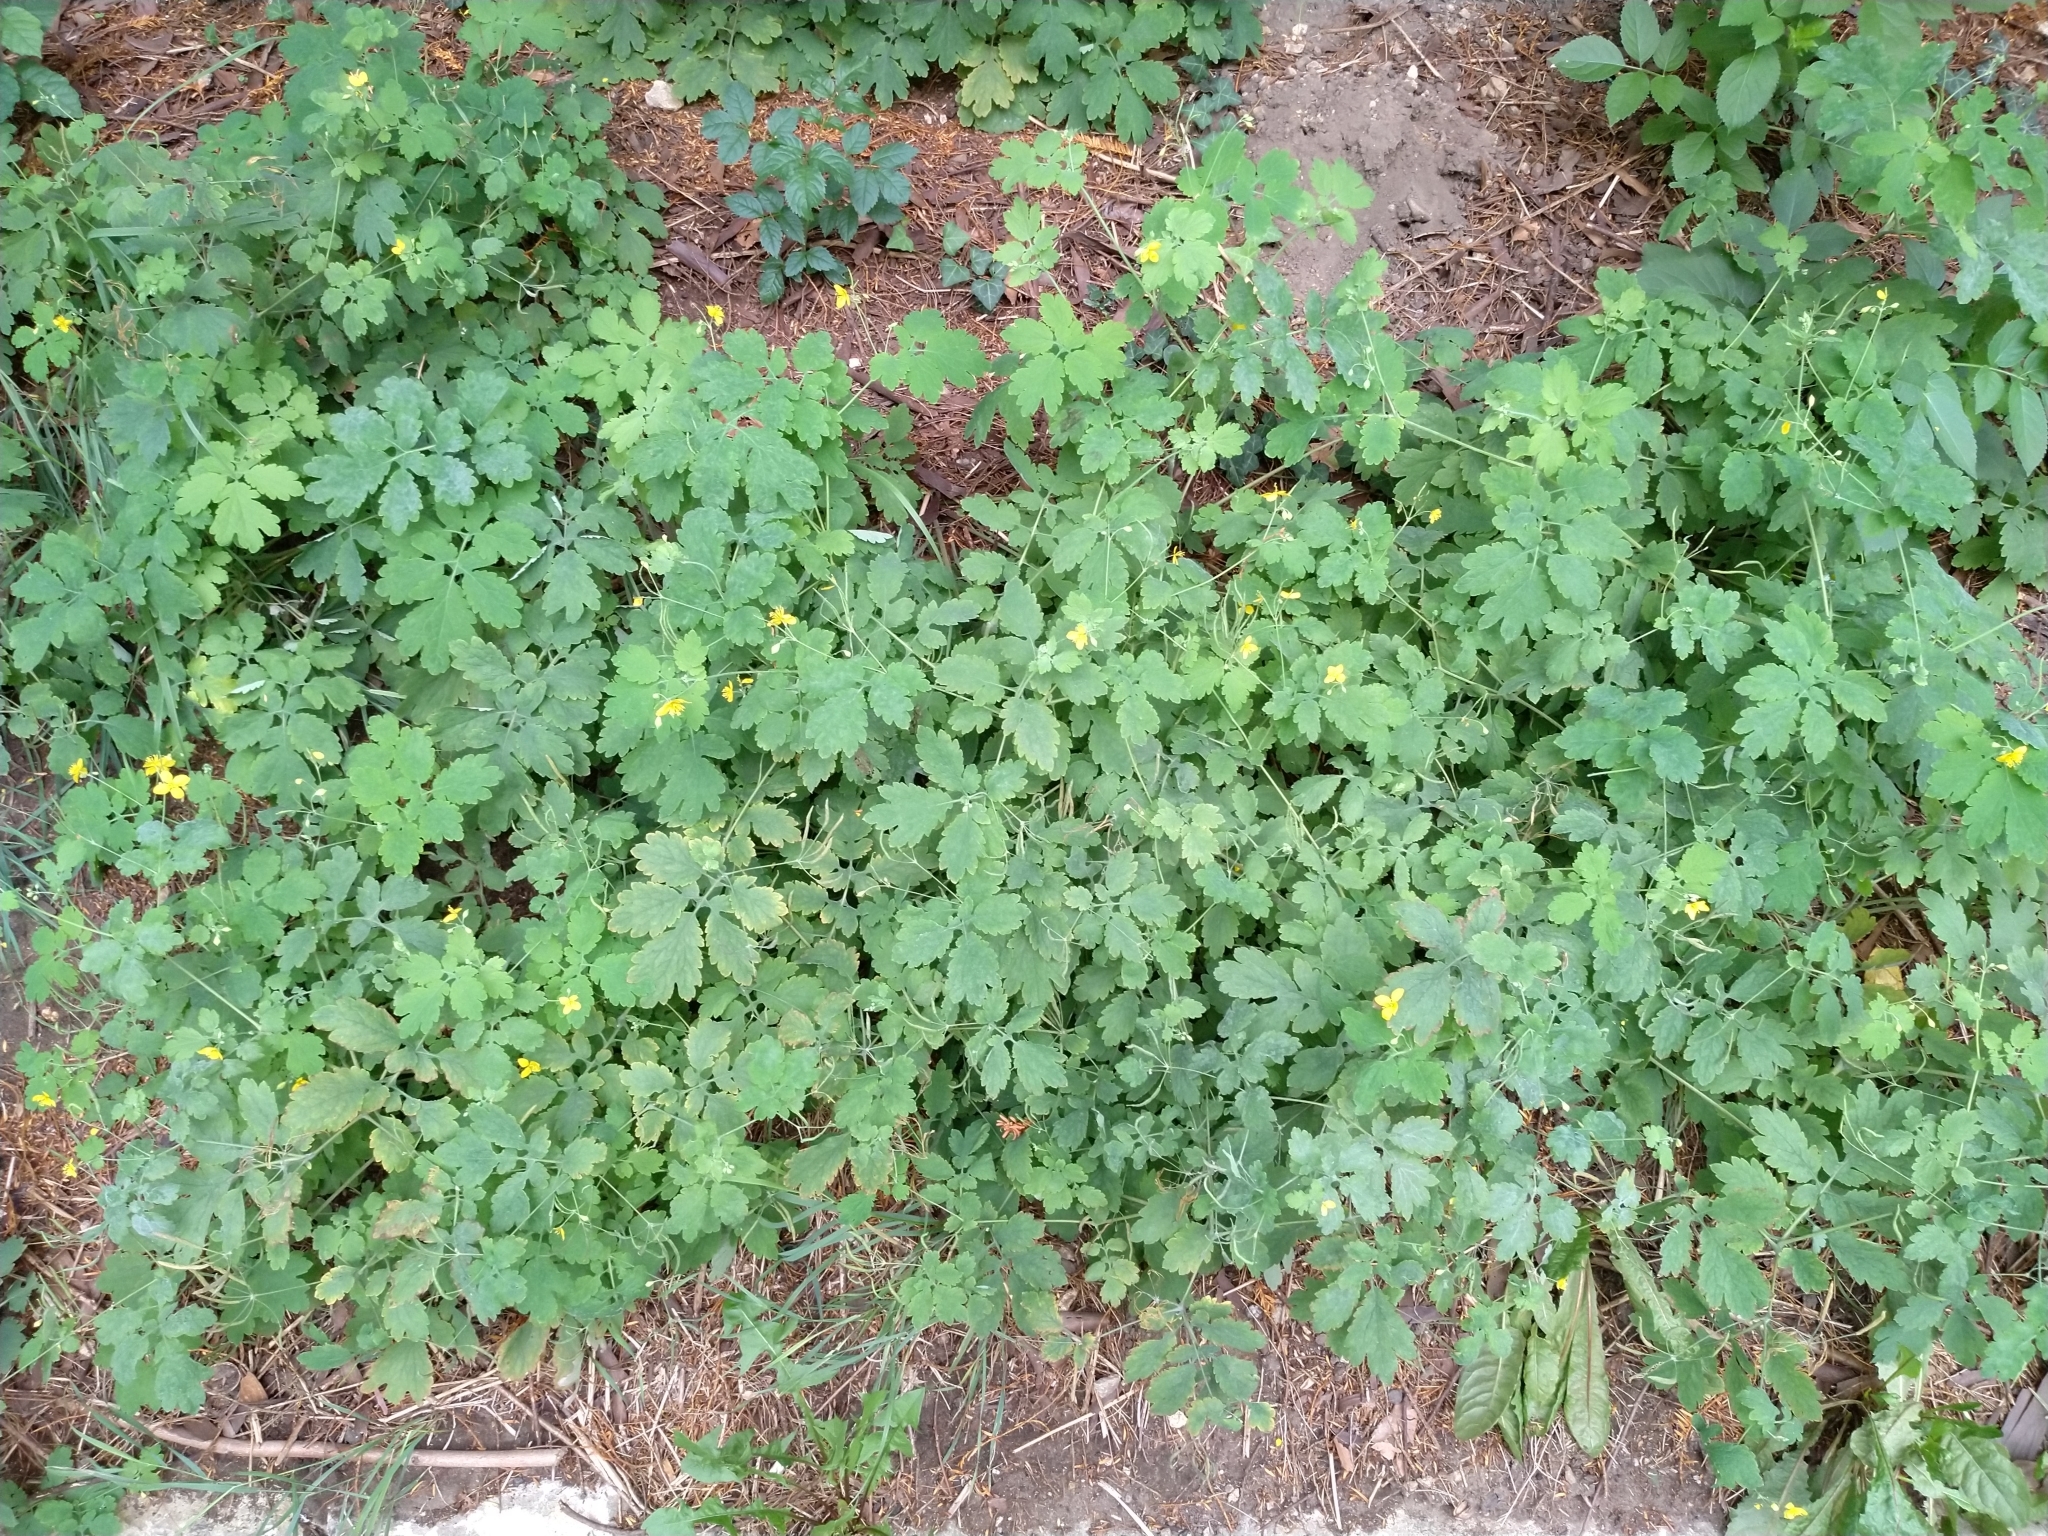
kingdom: Plantae
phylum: Tracheophyta
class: Magnoliopsida
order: Ranunculales
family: Papaveraceae
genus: Chelidonium
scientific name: Chelidonium majus
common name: Greater celandine
